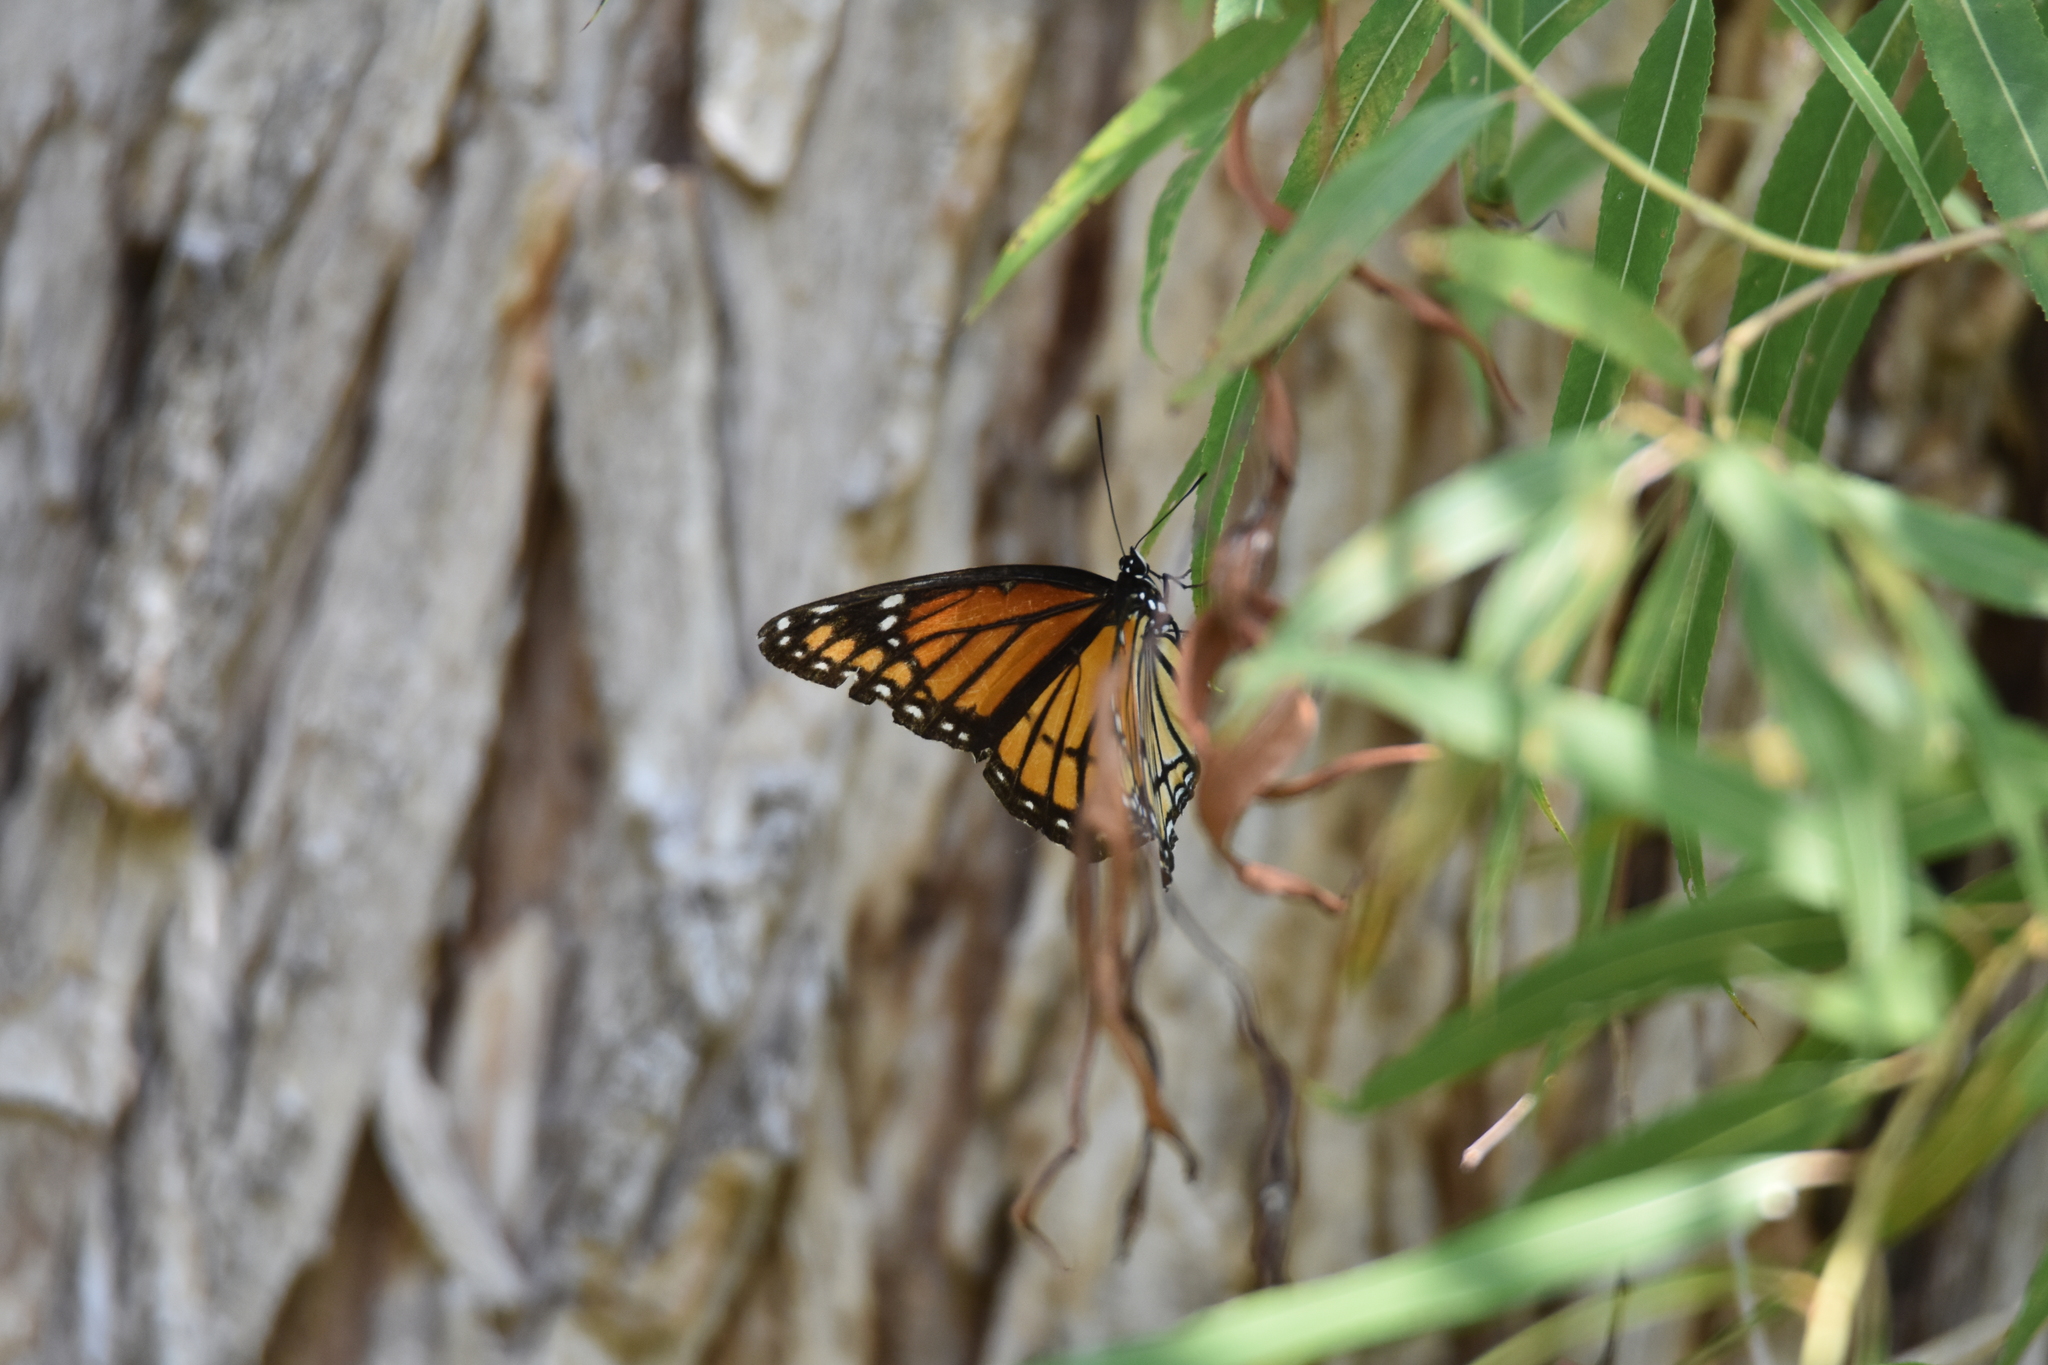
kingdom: Animalia
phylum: Arthropoda
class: Insecta
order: Lepidoptera
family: Nymphalidae
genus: Limenitis
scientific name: Limenitis archippus
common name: Viceroy
